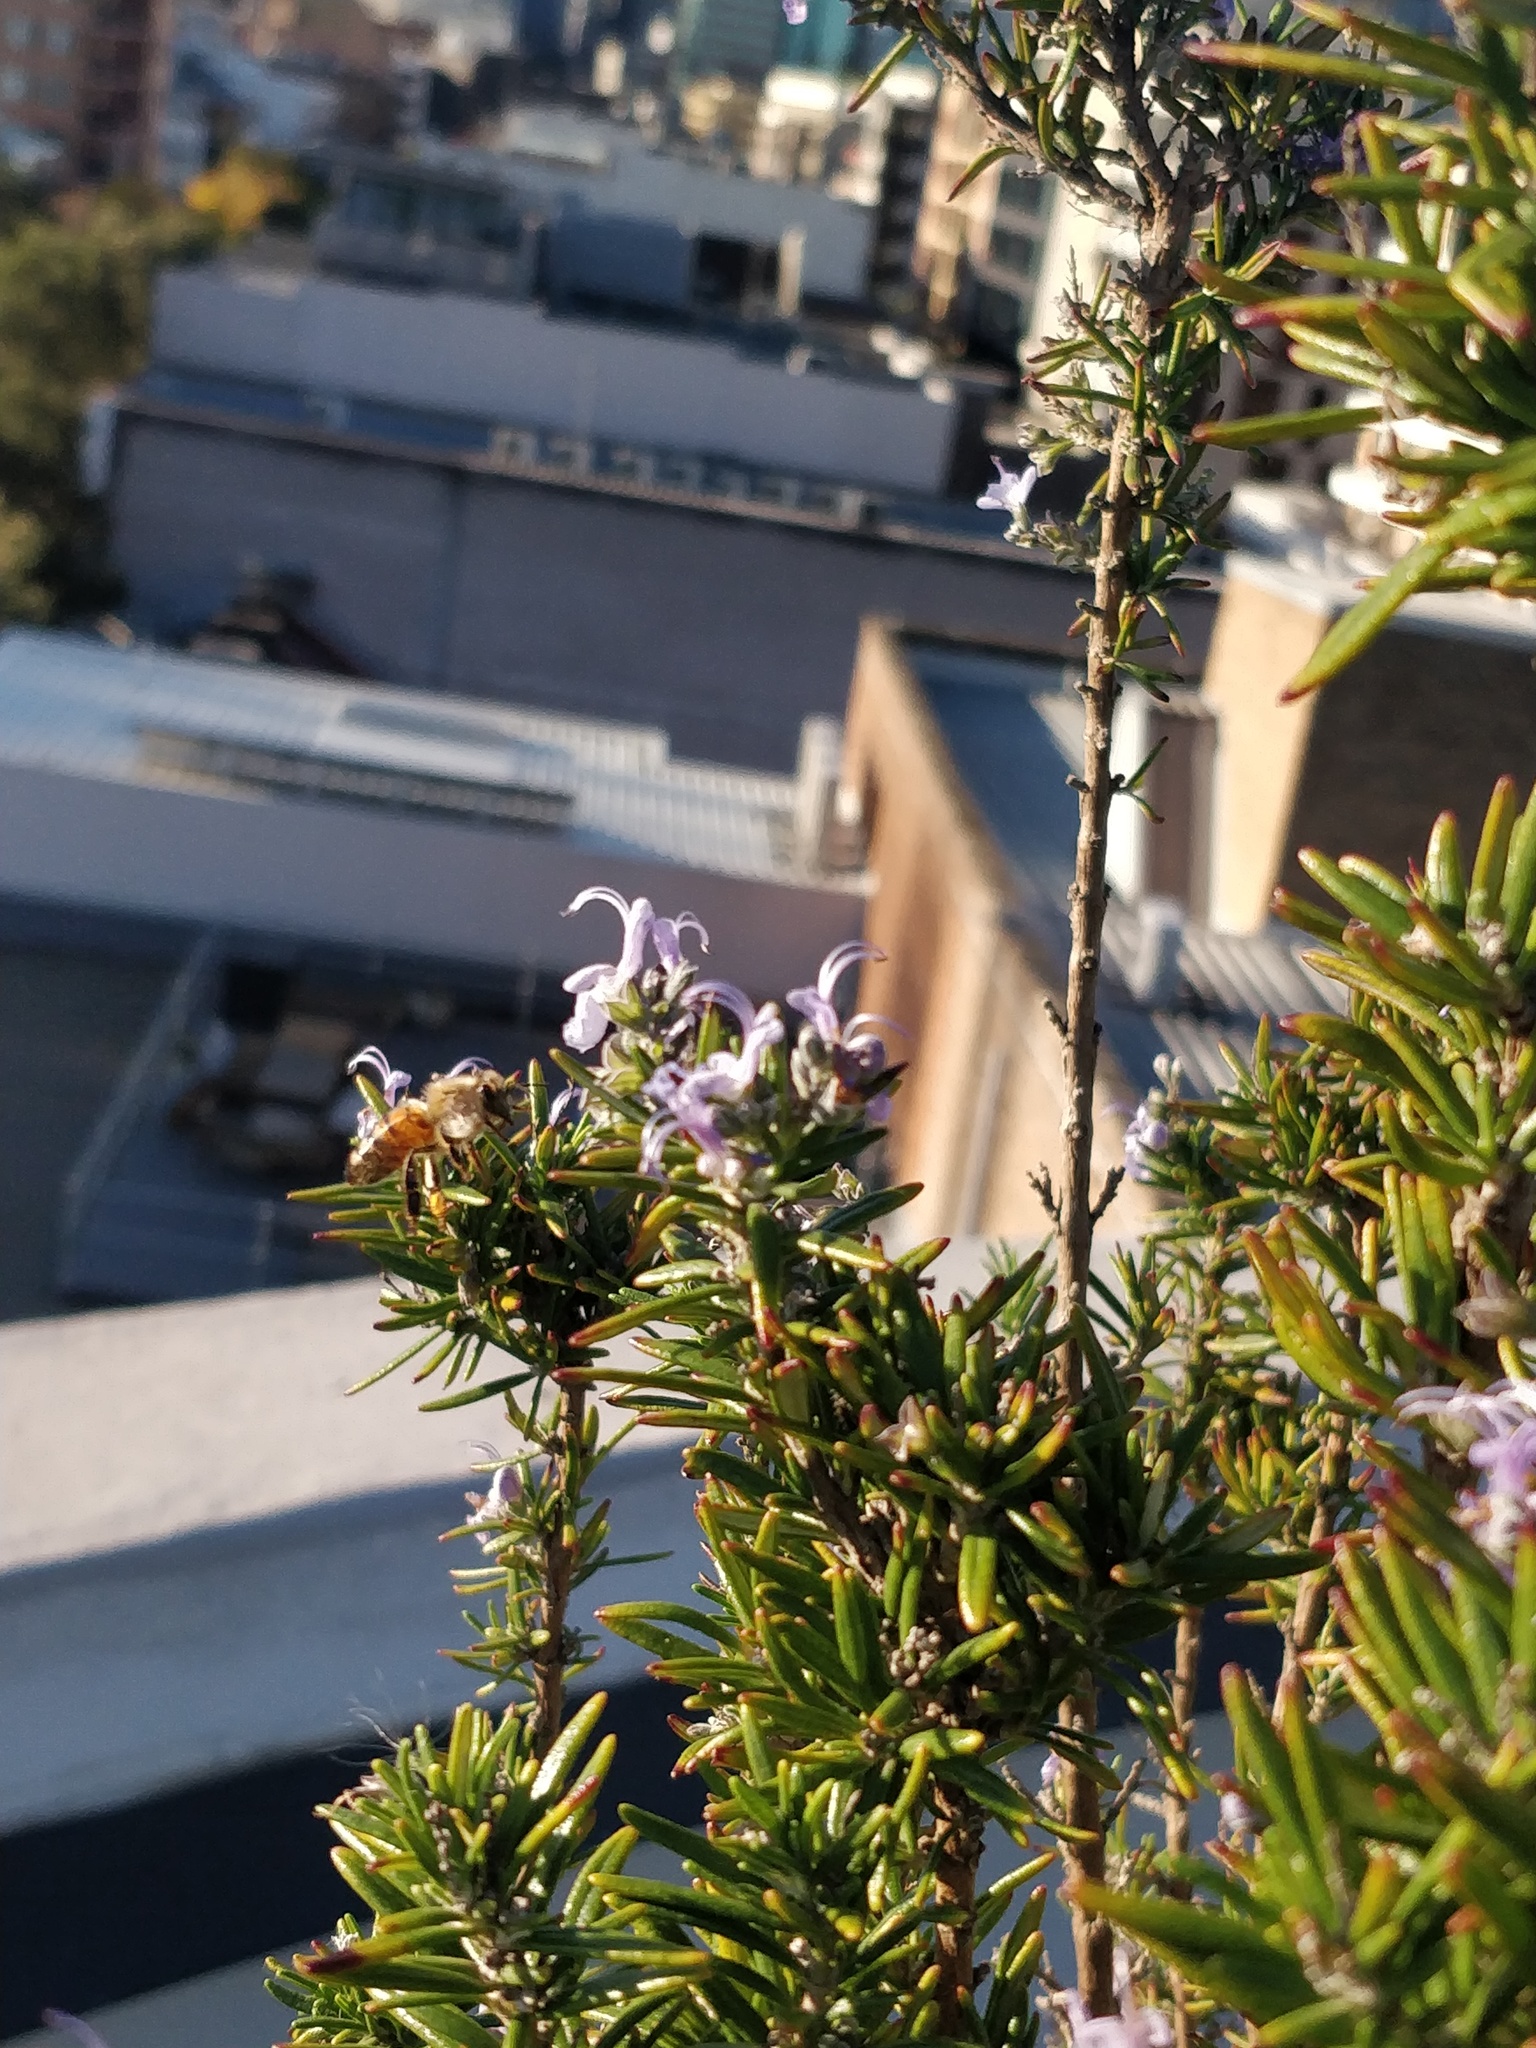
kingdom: Animalia
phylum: Arthropoda
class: Insecta
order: Hymenoptera
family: Apidae
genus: Apis
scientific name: Apis mellifera
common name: Honey bee
